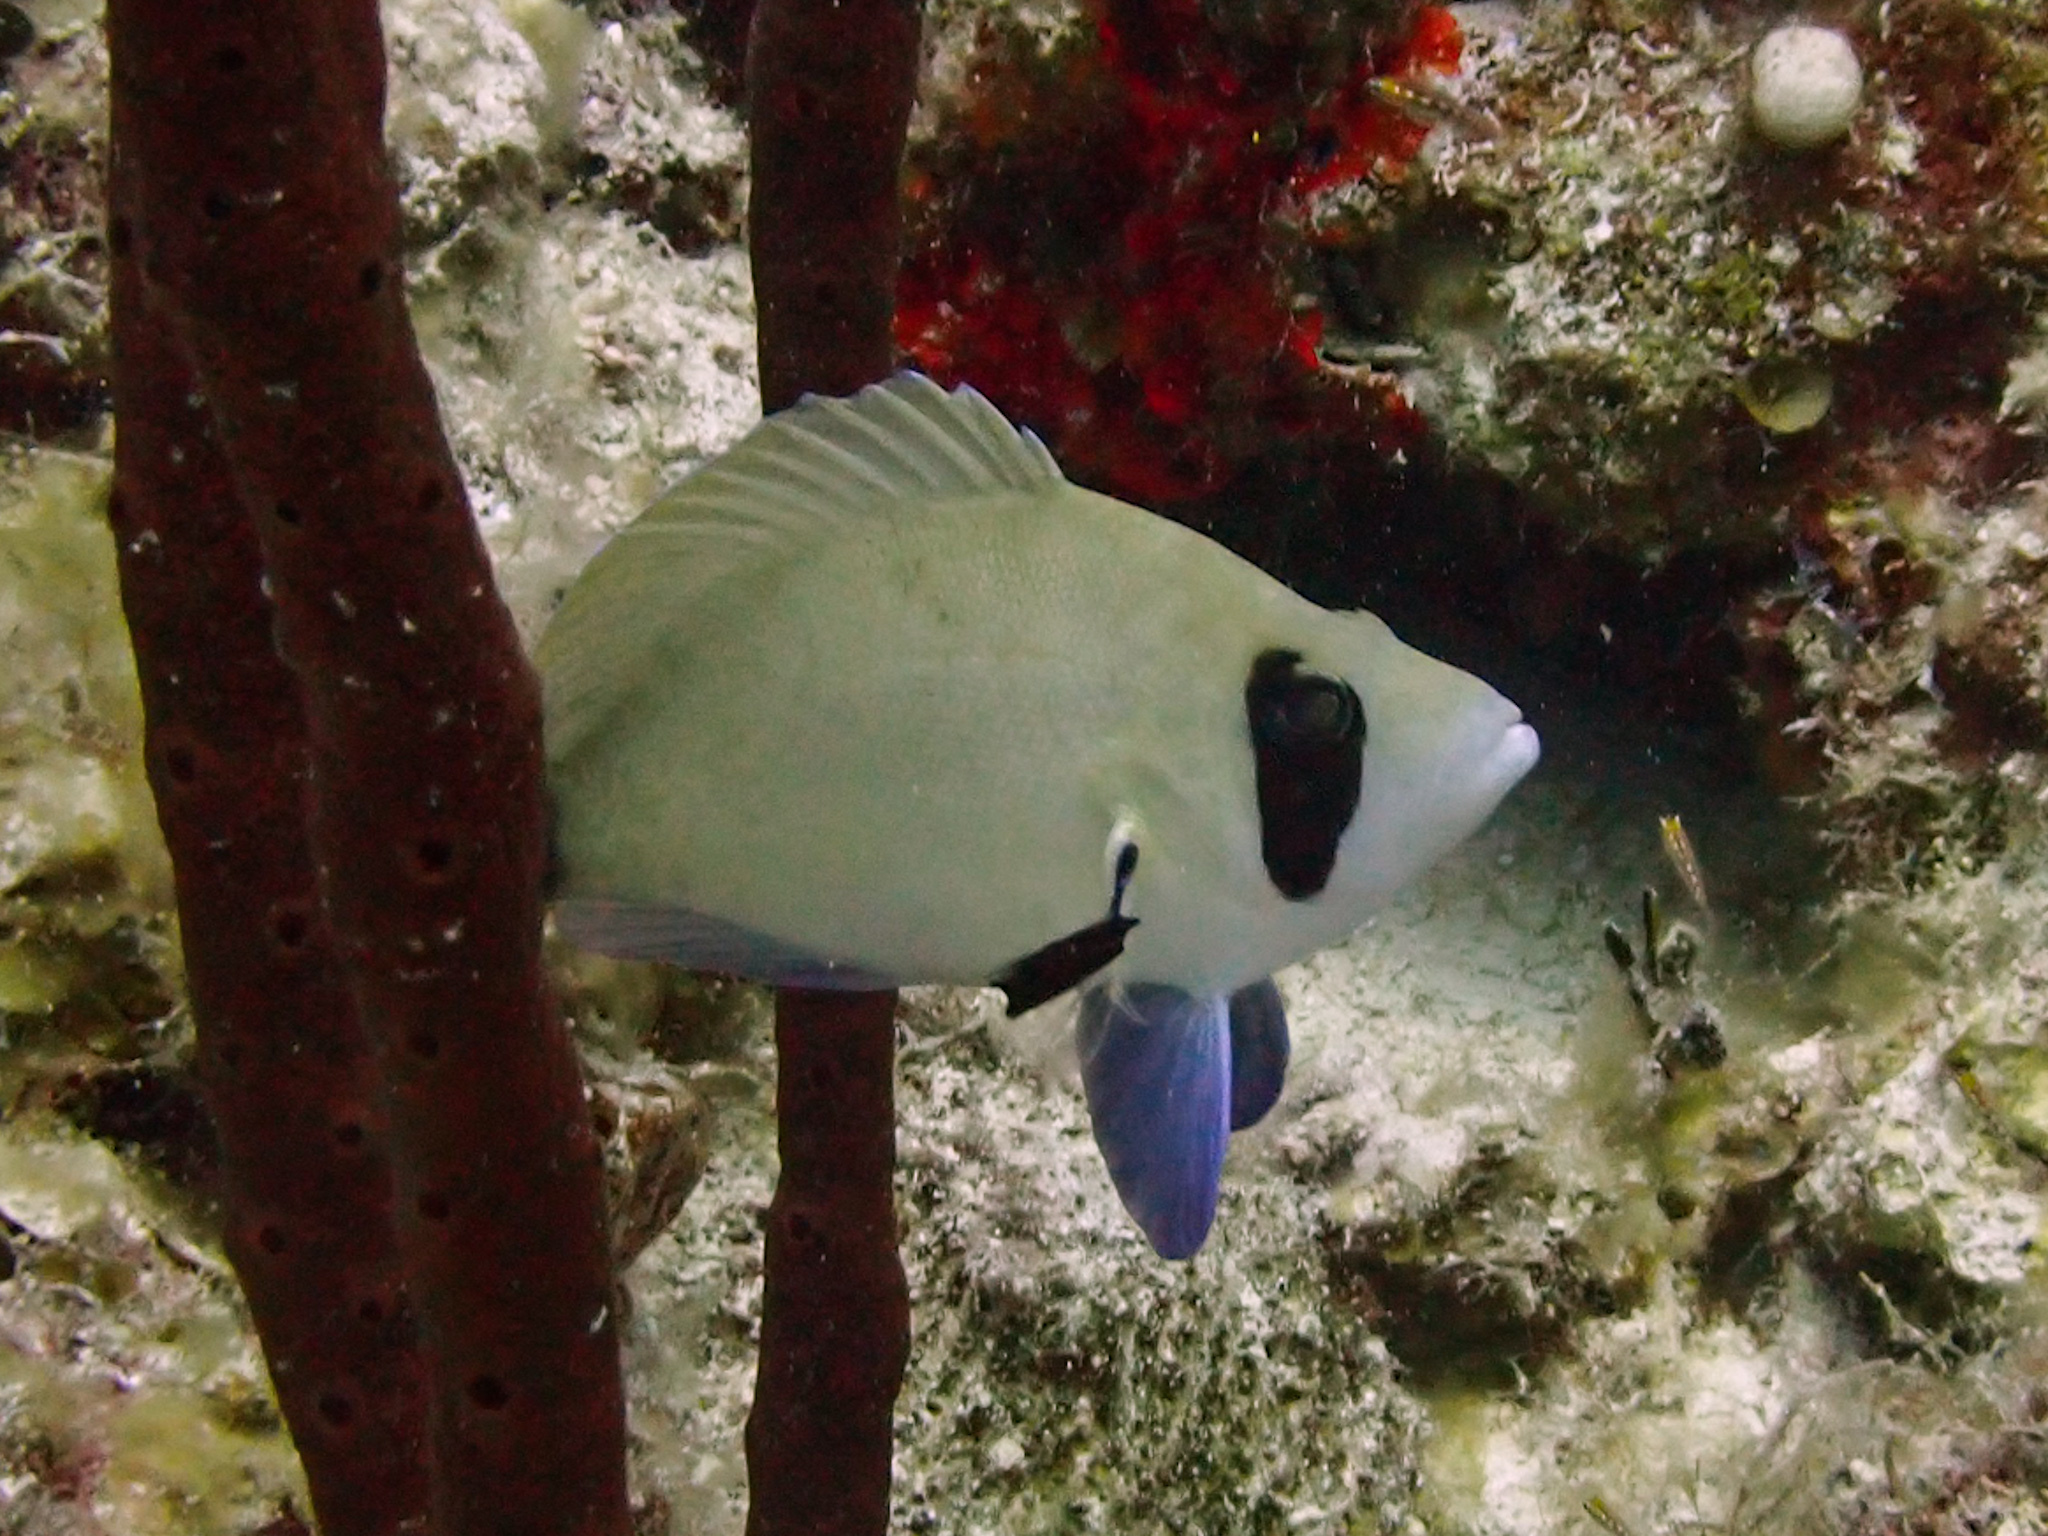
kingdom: Animalia
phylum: Chordata
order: Perciformes
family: Serranidae
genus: Hypoplectrus
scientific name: Hypoplectrus providencianus
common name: Masked hamlet
